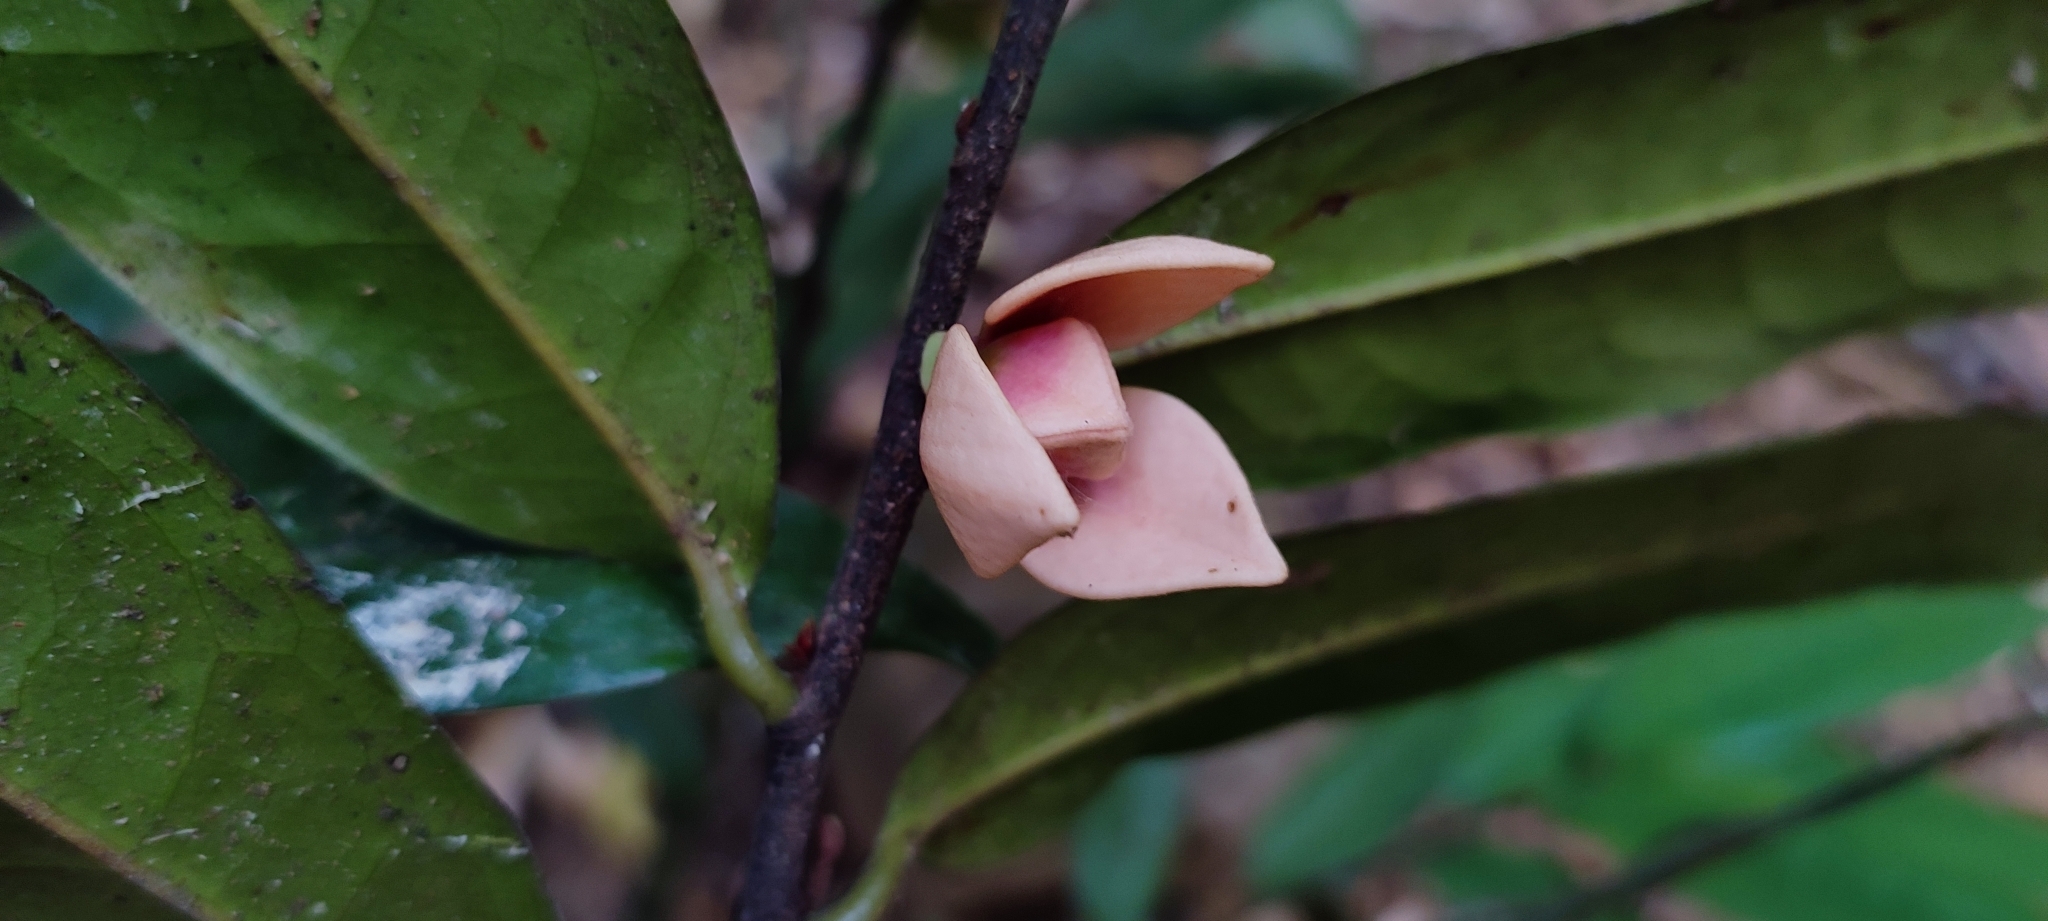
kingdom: Plantae
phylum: Tracheophyta
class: Magnoliopsida
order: Magnoliales
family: Annonaceae
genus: Goniothalamus
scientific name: Goniothalamus wightii
